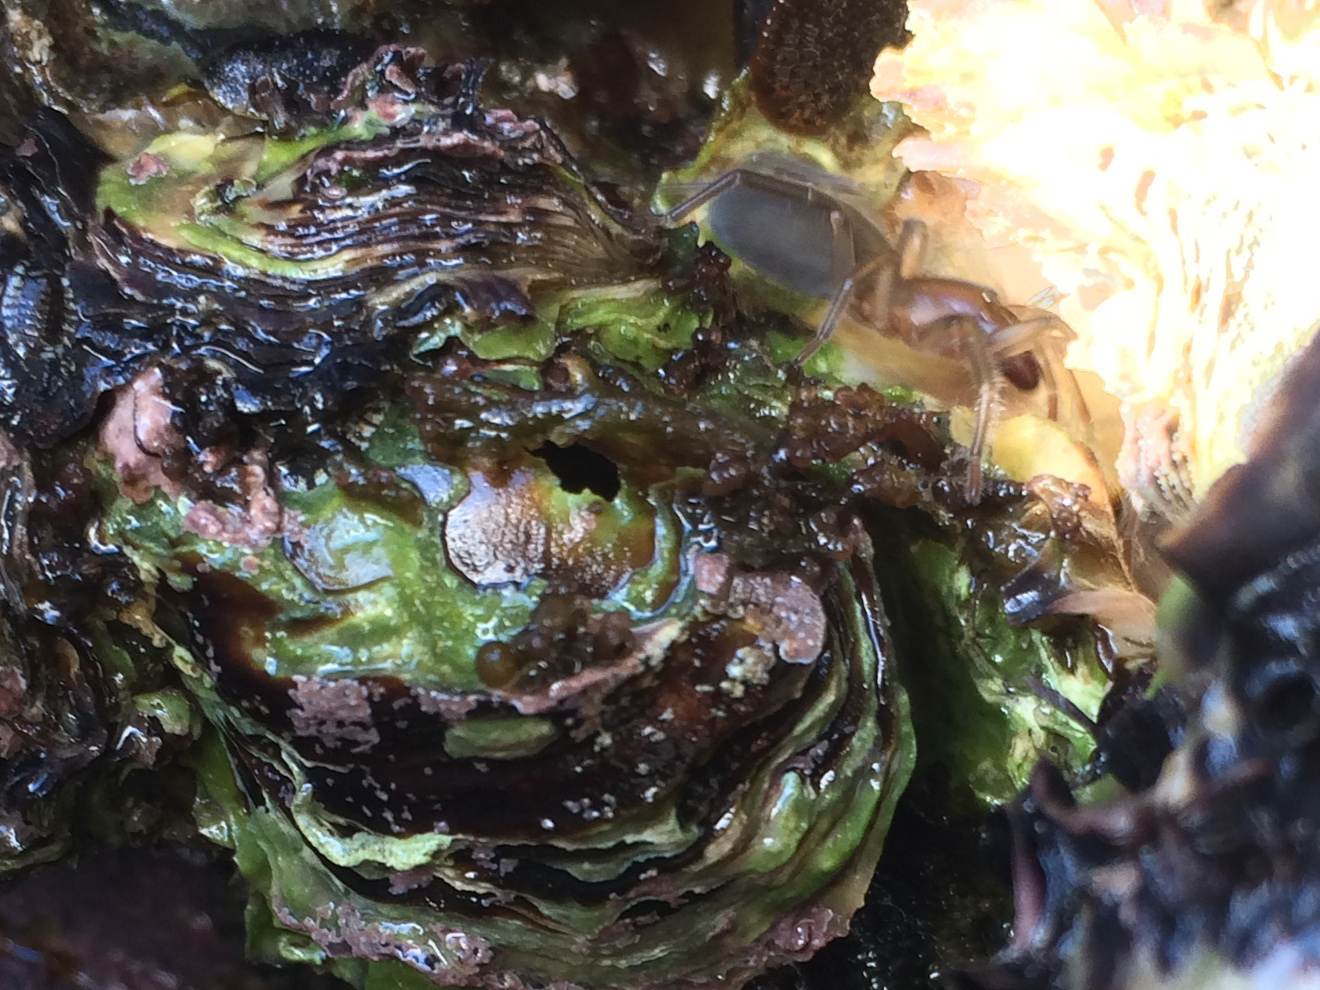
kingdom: Animalia
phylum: Arthropoda
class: Arachnida
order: Araneae
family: Desidae
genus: Desis
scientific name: Desis marina
